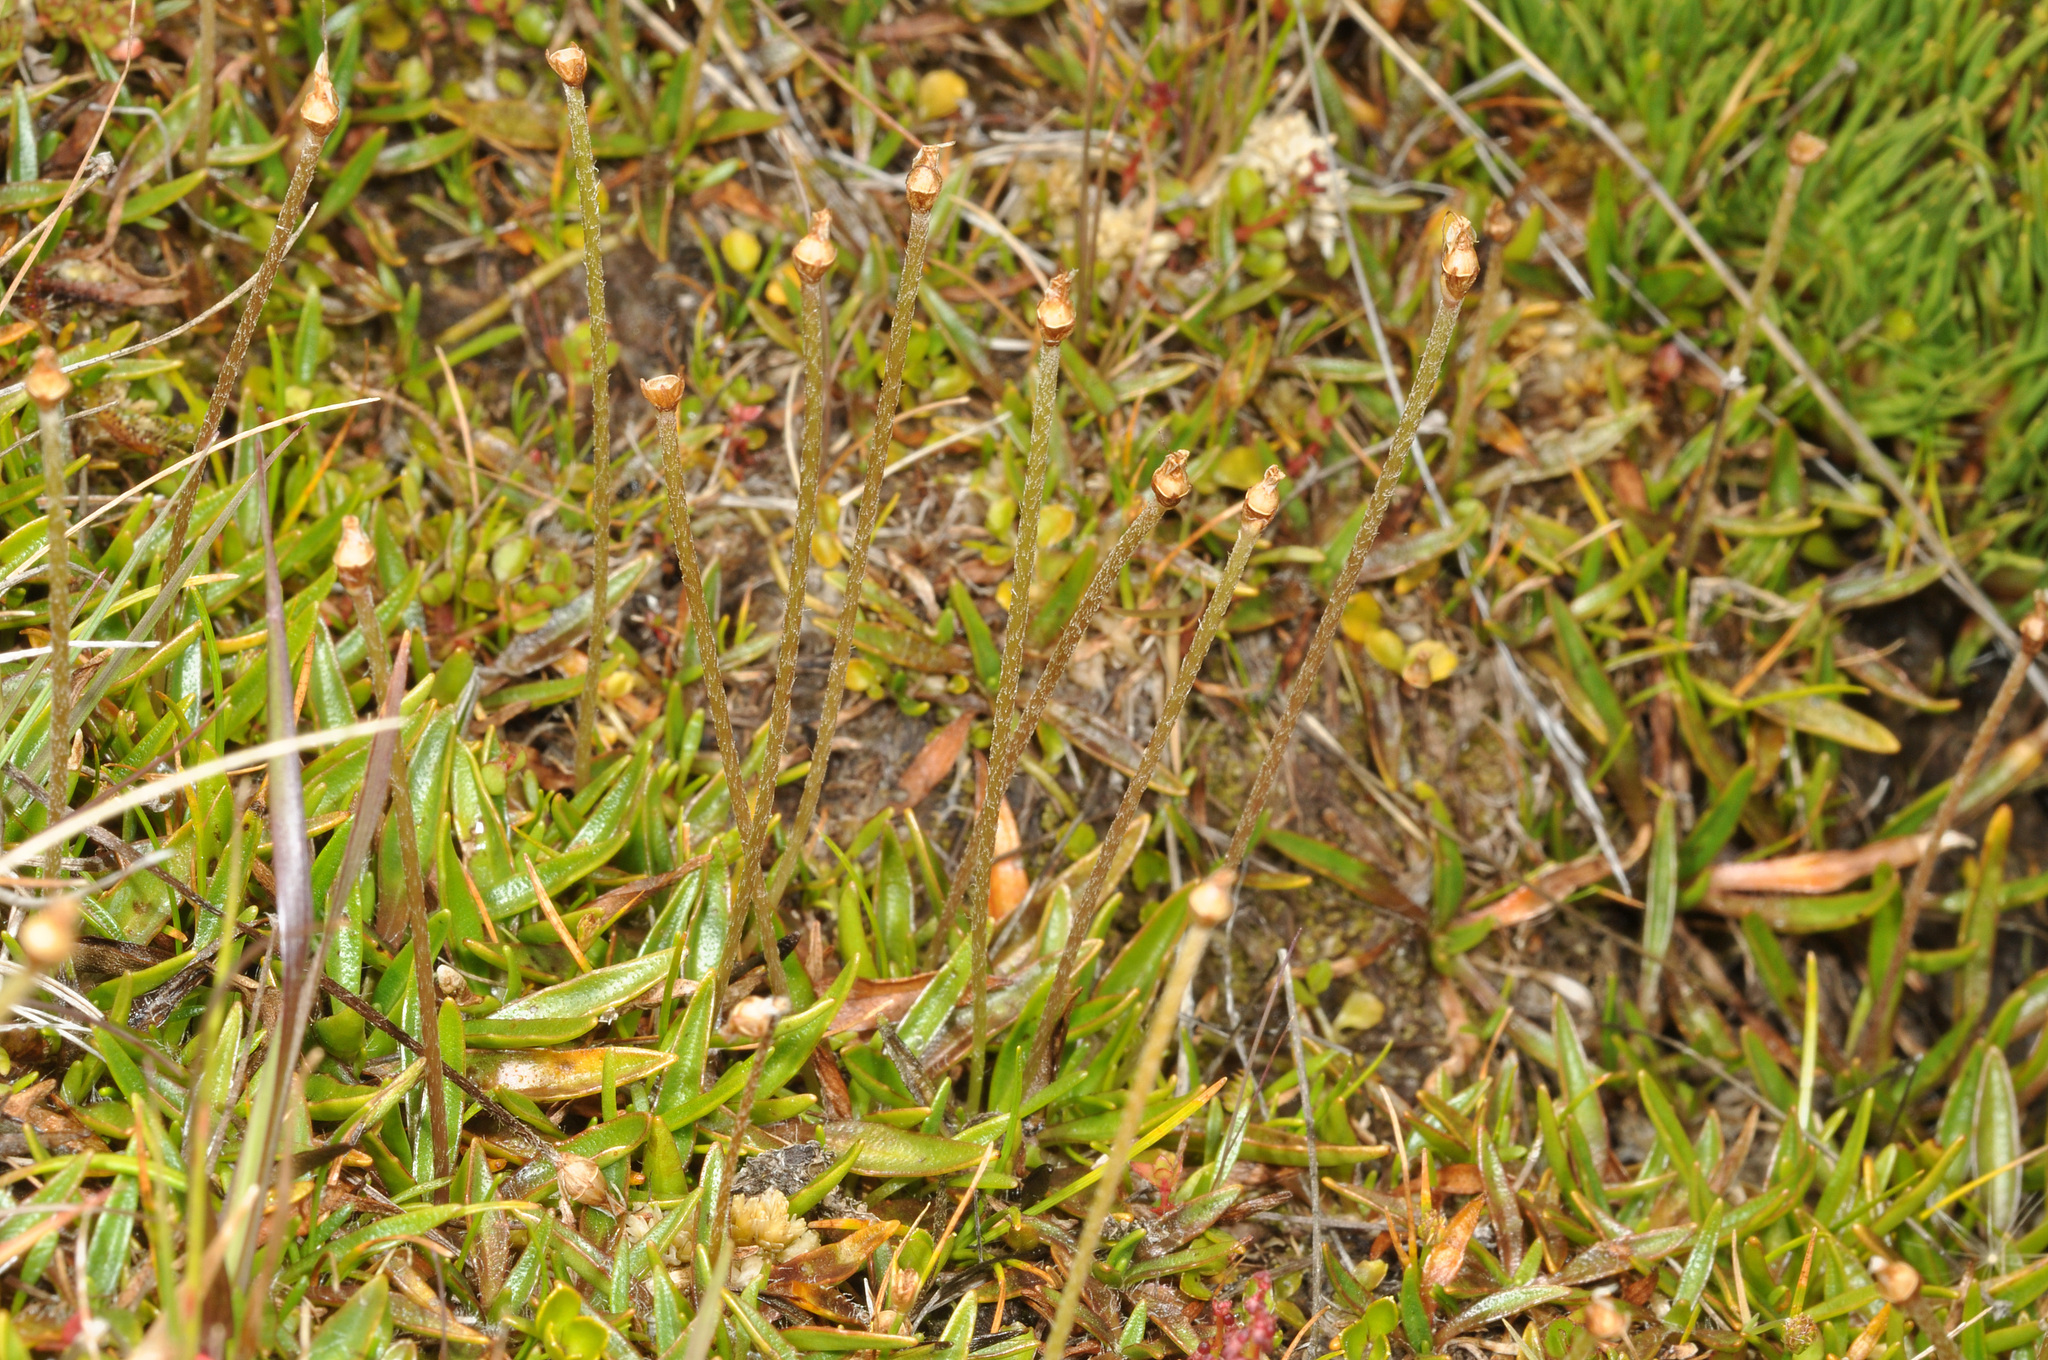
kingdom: Plantae
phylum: Tracheophyta
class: Magnoliopsida
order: Lamiales
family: Plantaginaceae
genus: Plantago
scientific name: Plantago unibracteata
